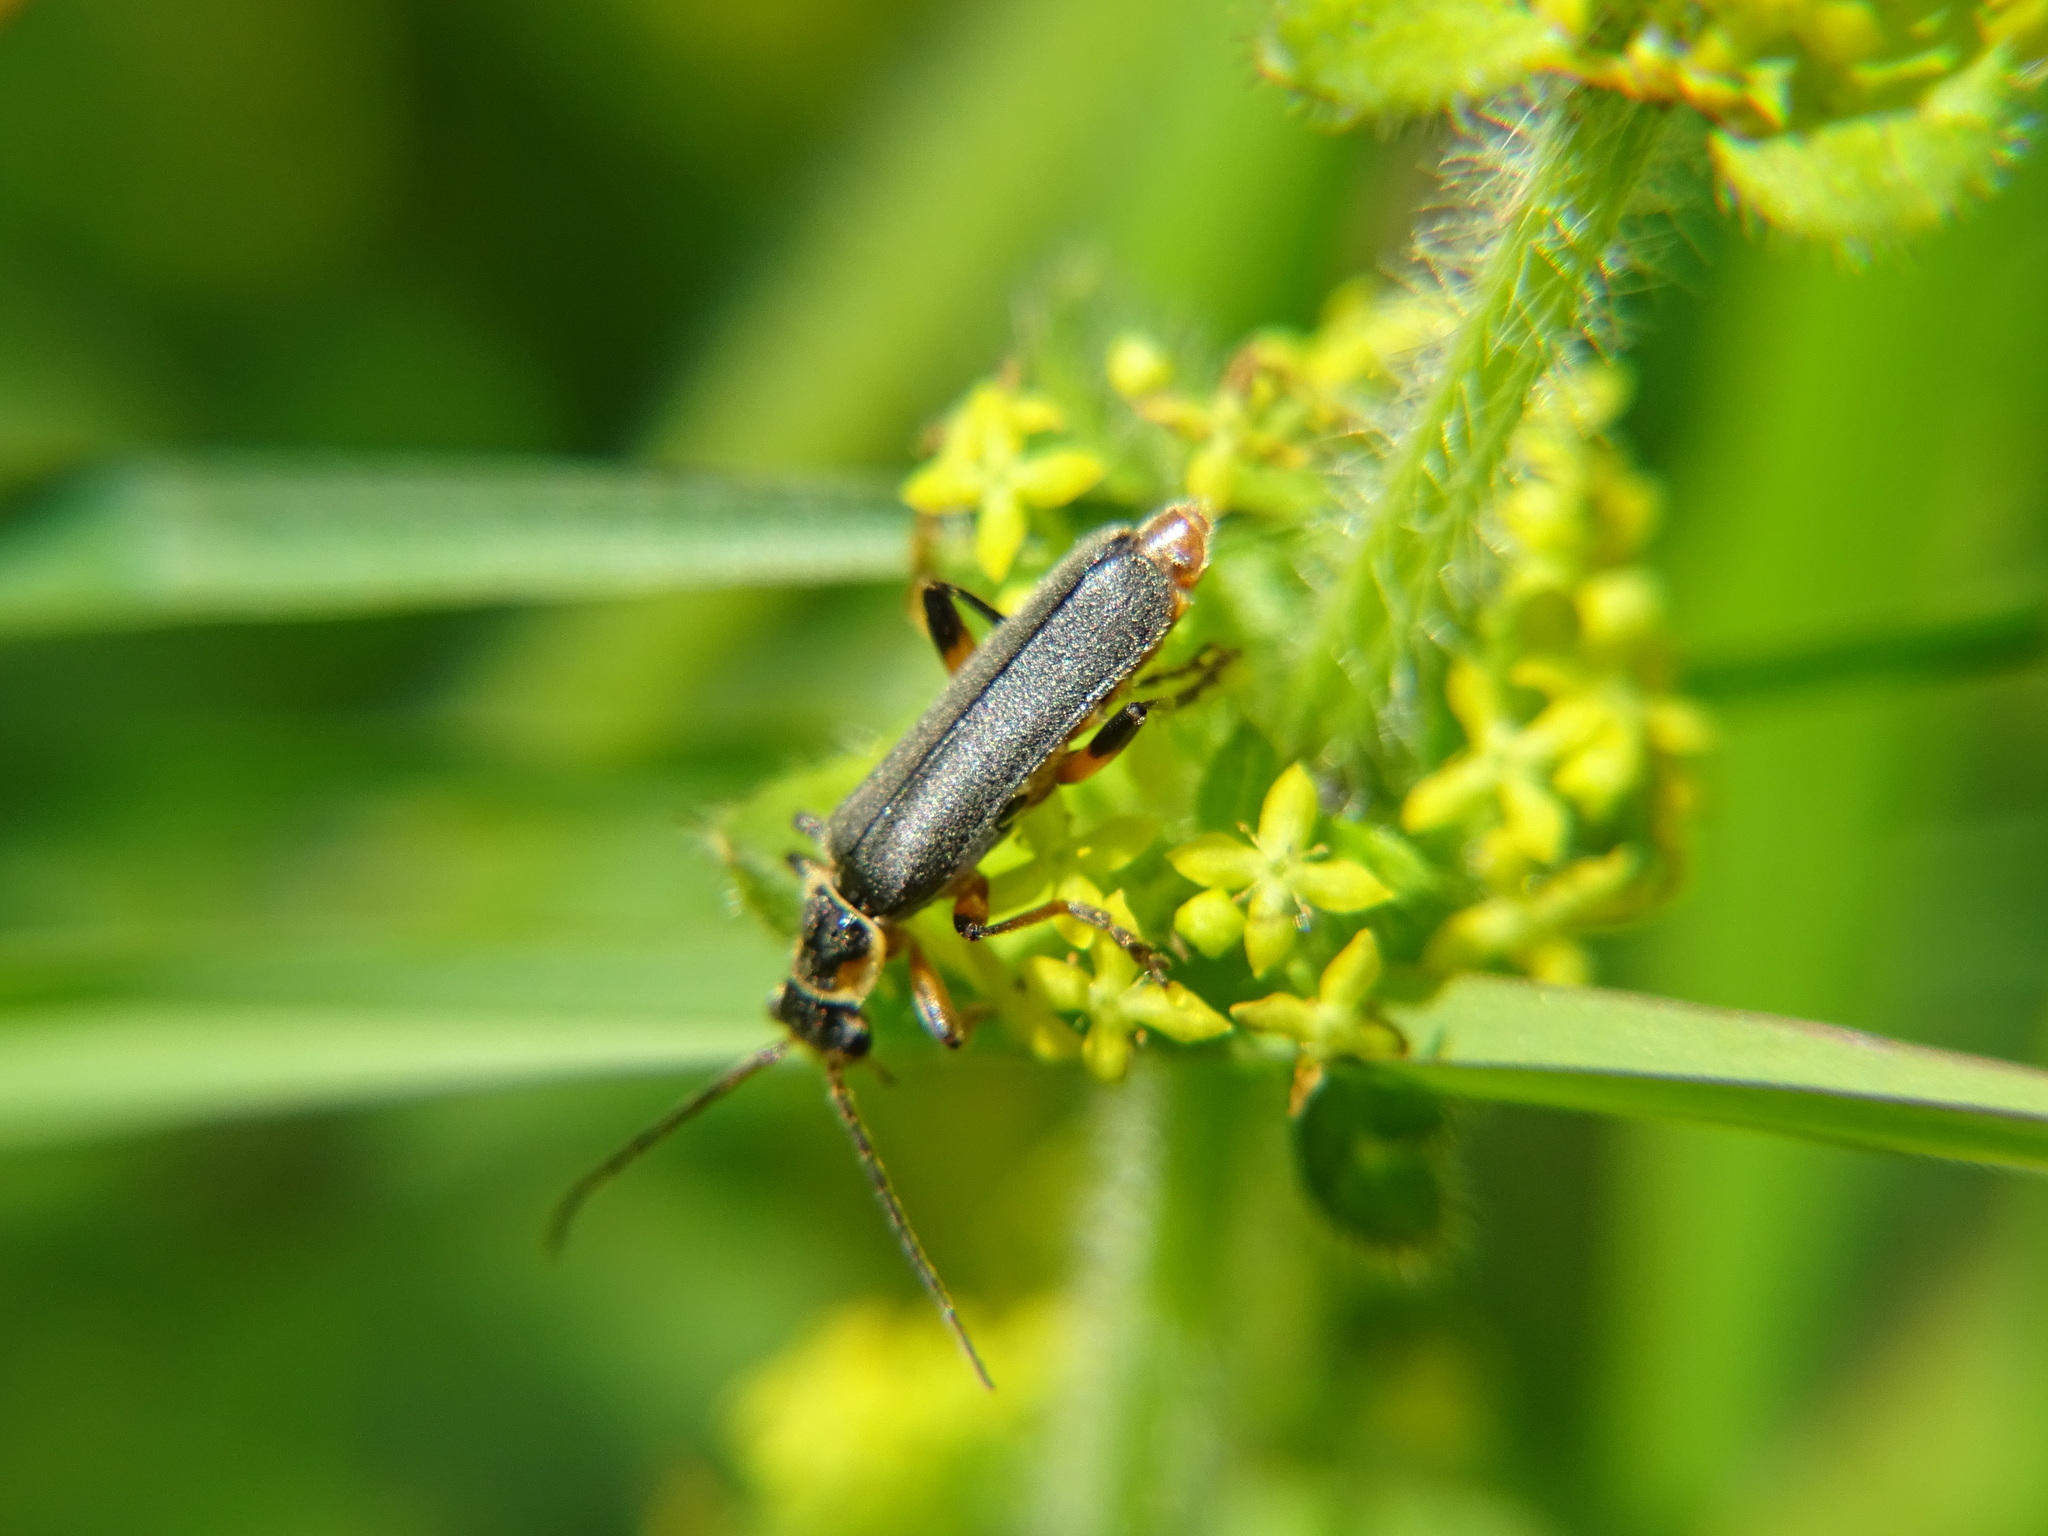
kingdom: Animalia
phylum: Arthropoda
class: Insecta
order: Coleoptera
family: Cantharidae
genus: Cantharis
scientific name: Cantharis nigricans
